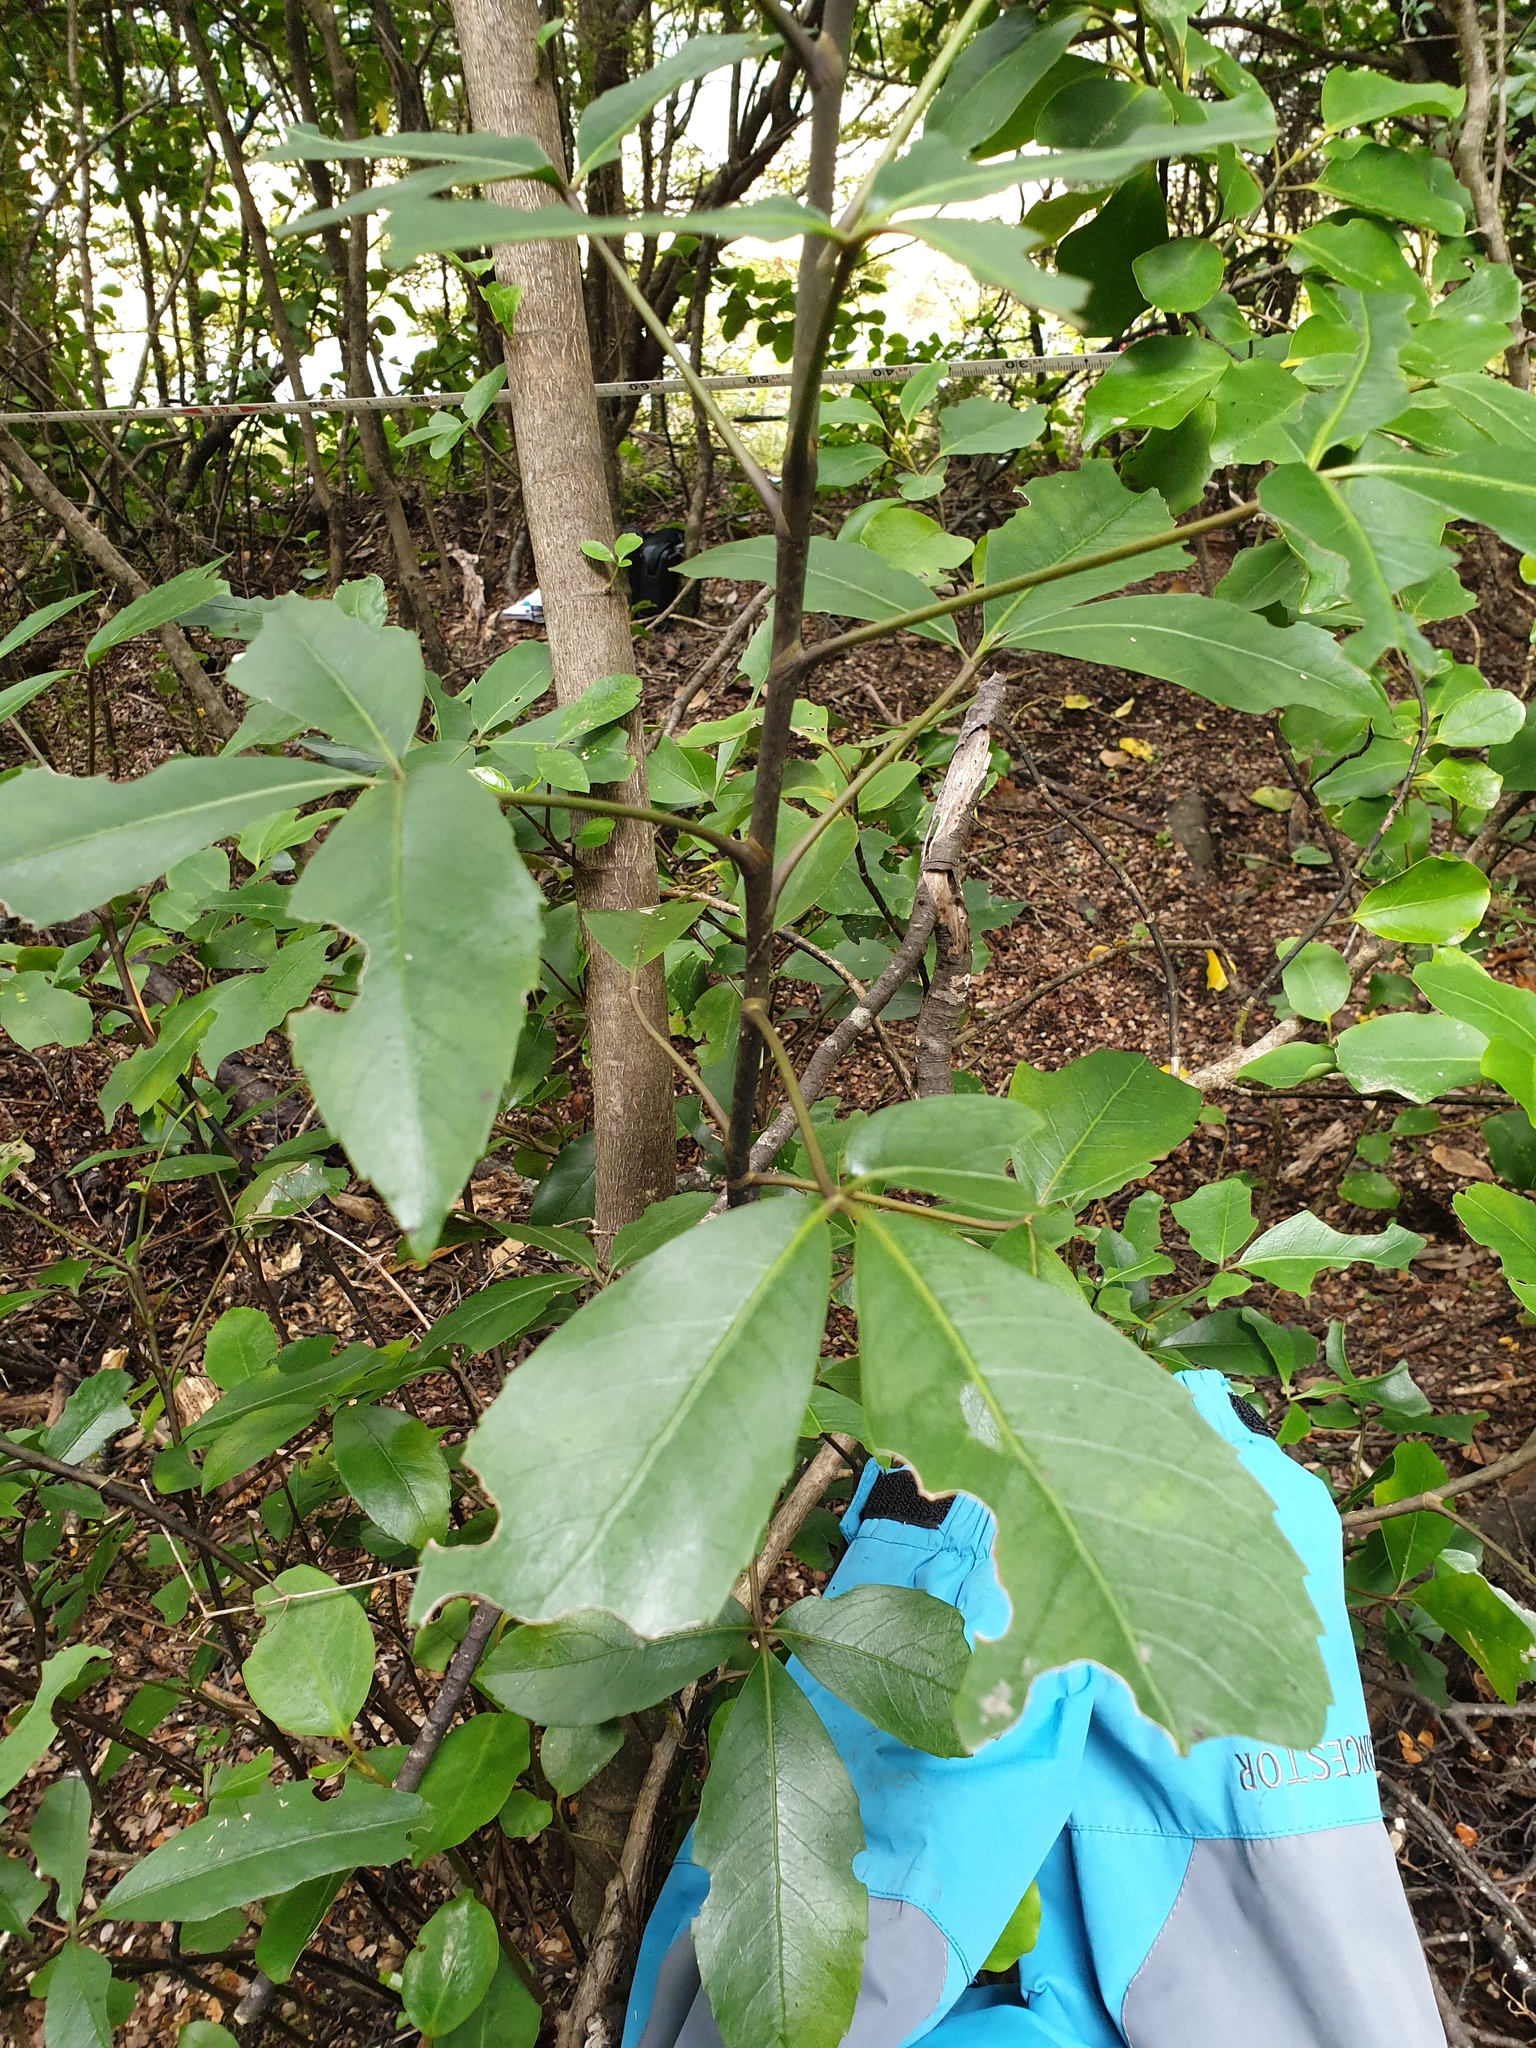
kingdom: Plantae
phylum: Tracheophyta
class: Magnoliopsida
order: Apiales
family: Araliaceae
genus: Neopanax
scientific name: Neopanax colensoi
